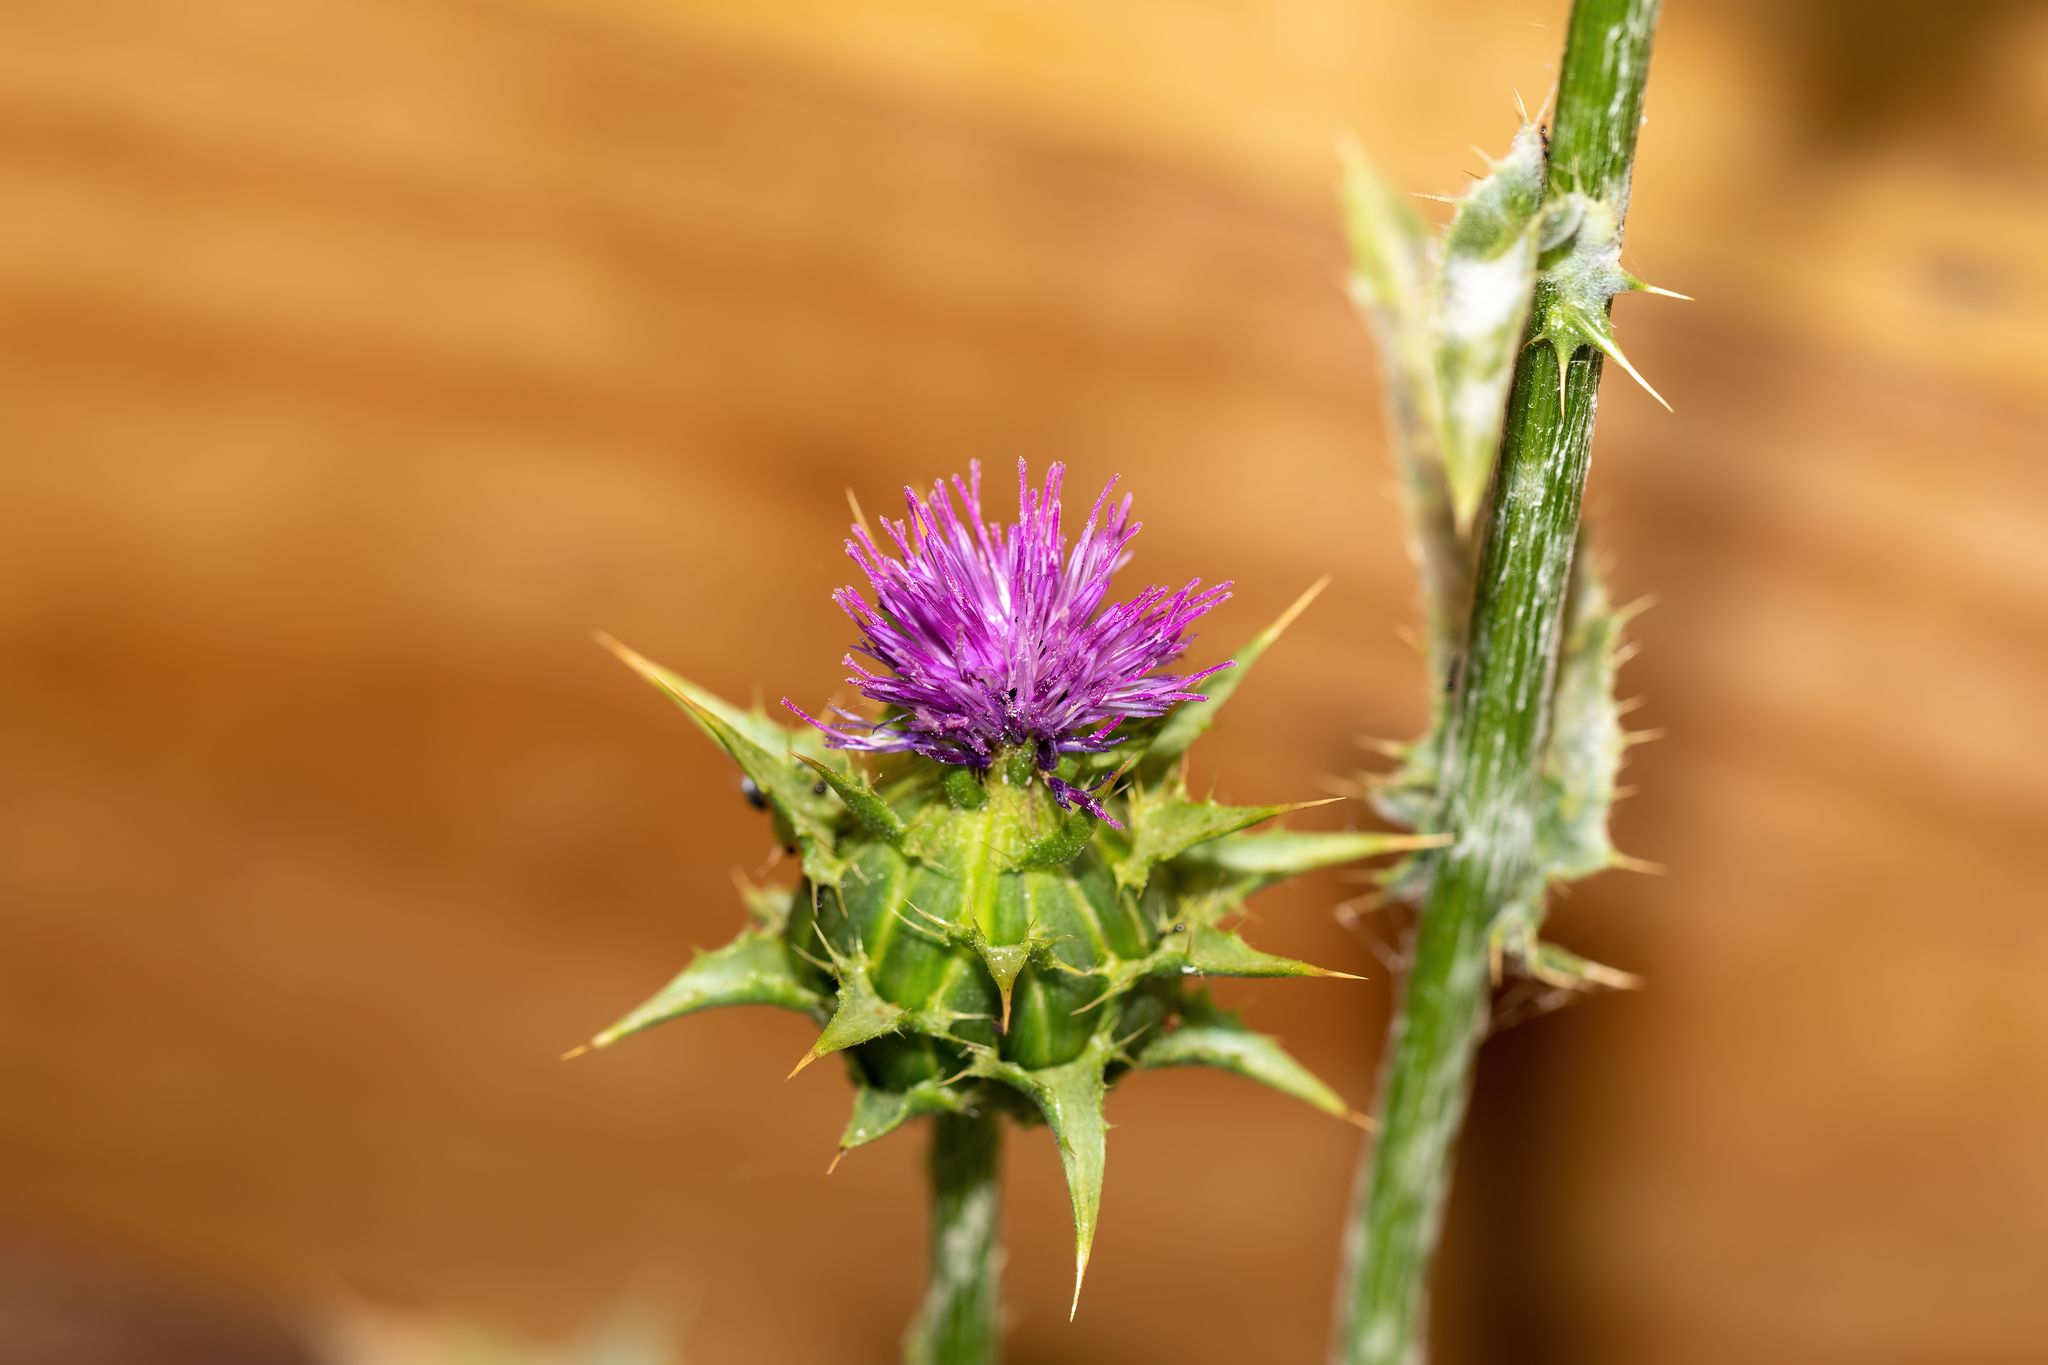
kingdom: Plantae
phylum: Tracheophyta
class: Magnoliopsida
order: Asterales
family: Asteraceae
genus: Silybum
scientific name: Silybum marianum
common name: Milk thistle
